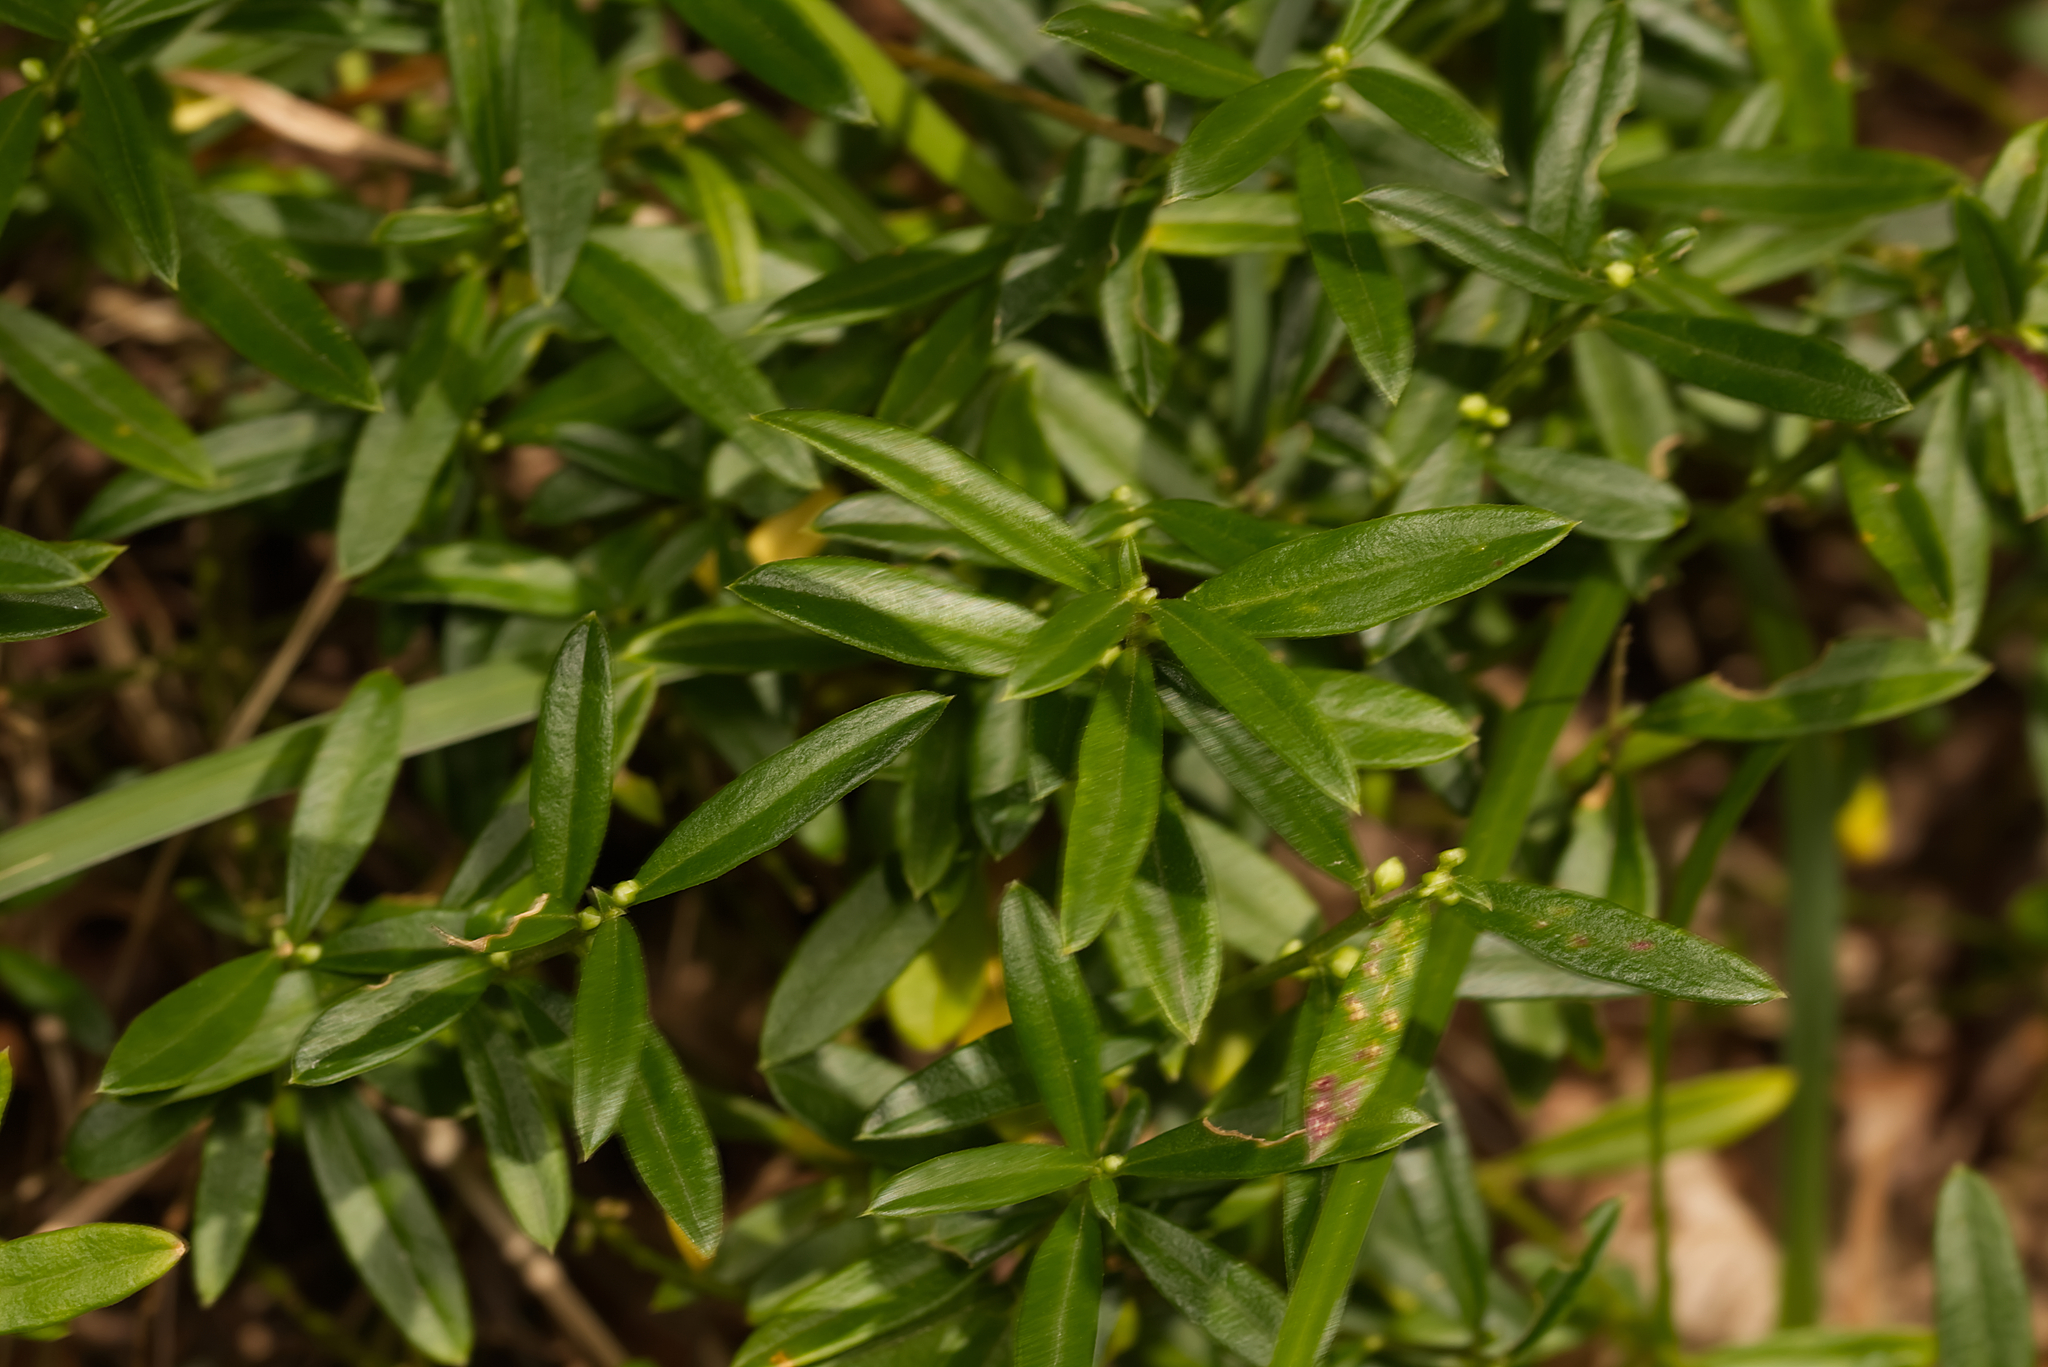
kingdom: Plantae
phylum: Tracheophyta
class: Magnoliopsida
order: Fabales
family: Polygalaceae
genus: Polygaloides
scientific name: Polygaloides chamaebuxus
